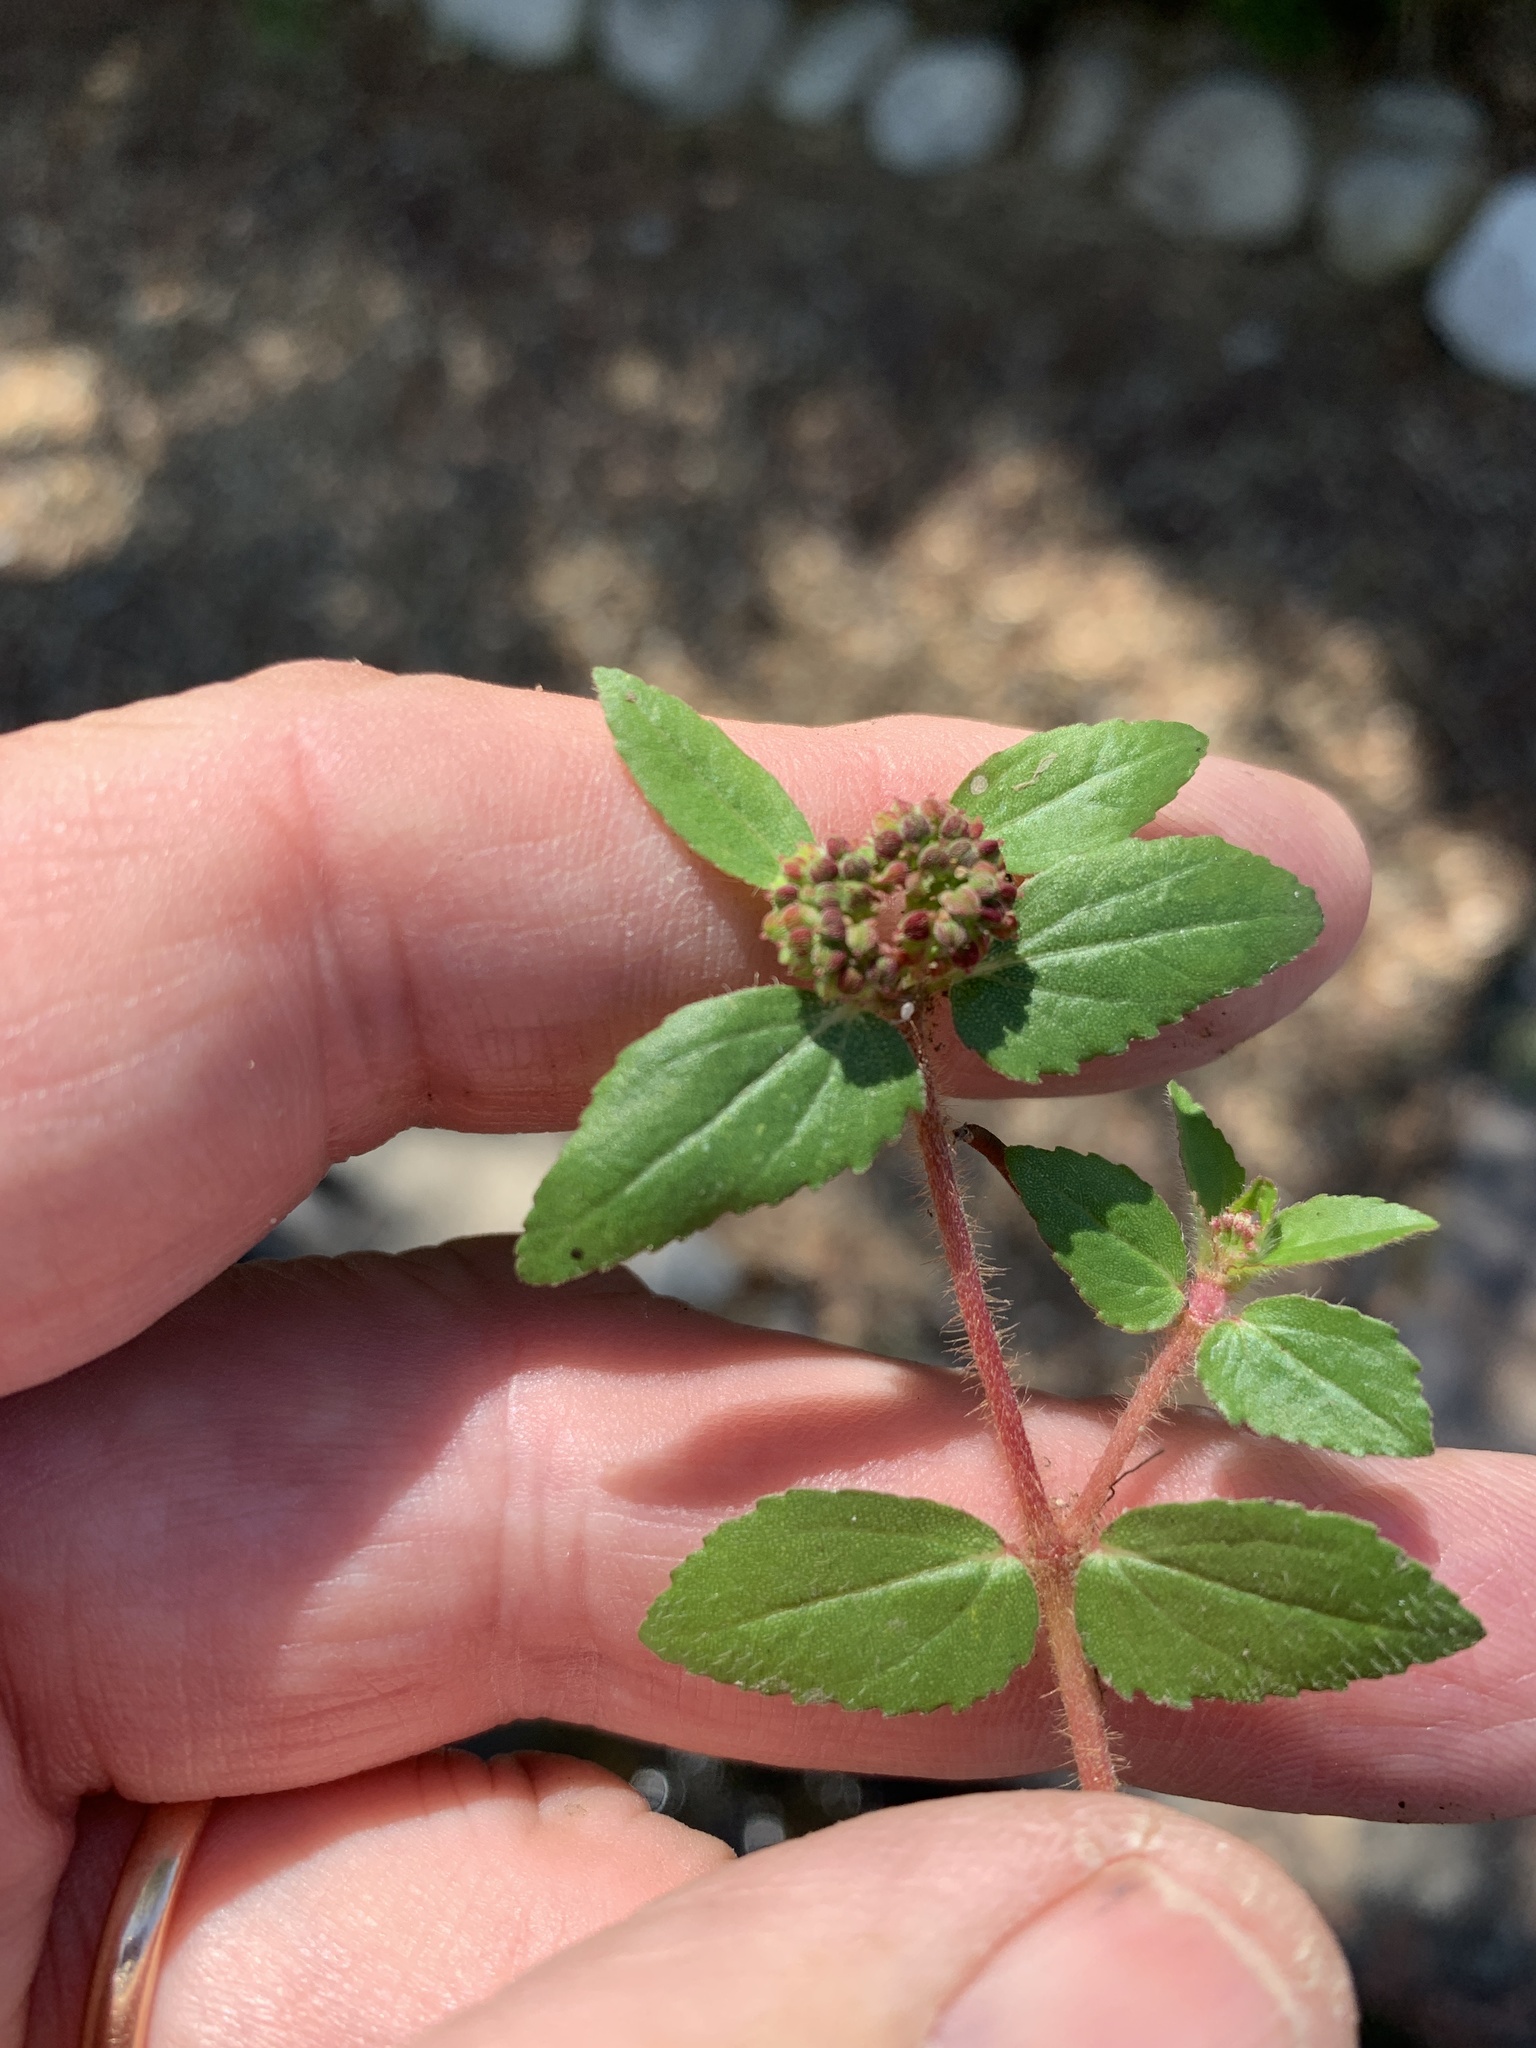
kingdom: Plantae
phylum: Tracheophyta
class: Magnoliopsida
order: Malpighiales
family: Euphorbiaceae
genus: Euphorbia
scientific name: Euphorbia ophthalmica
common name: Florida hammock sandmat
